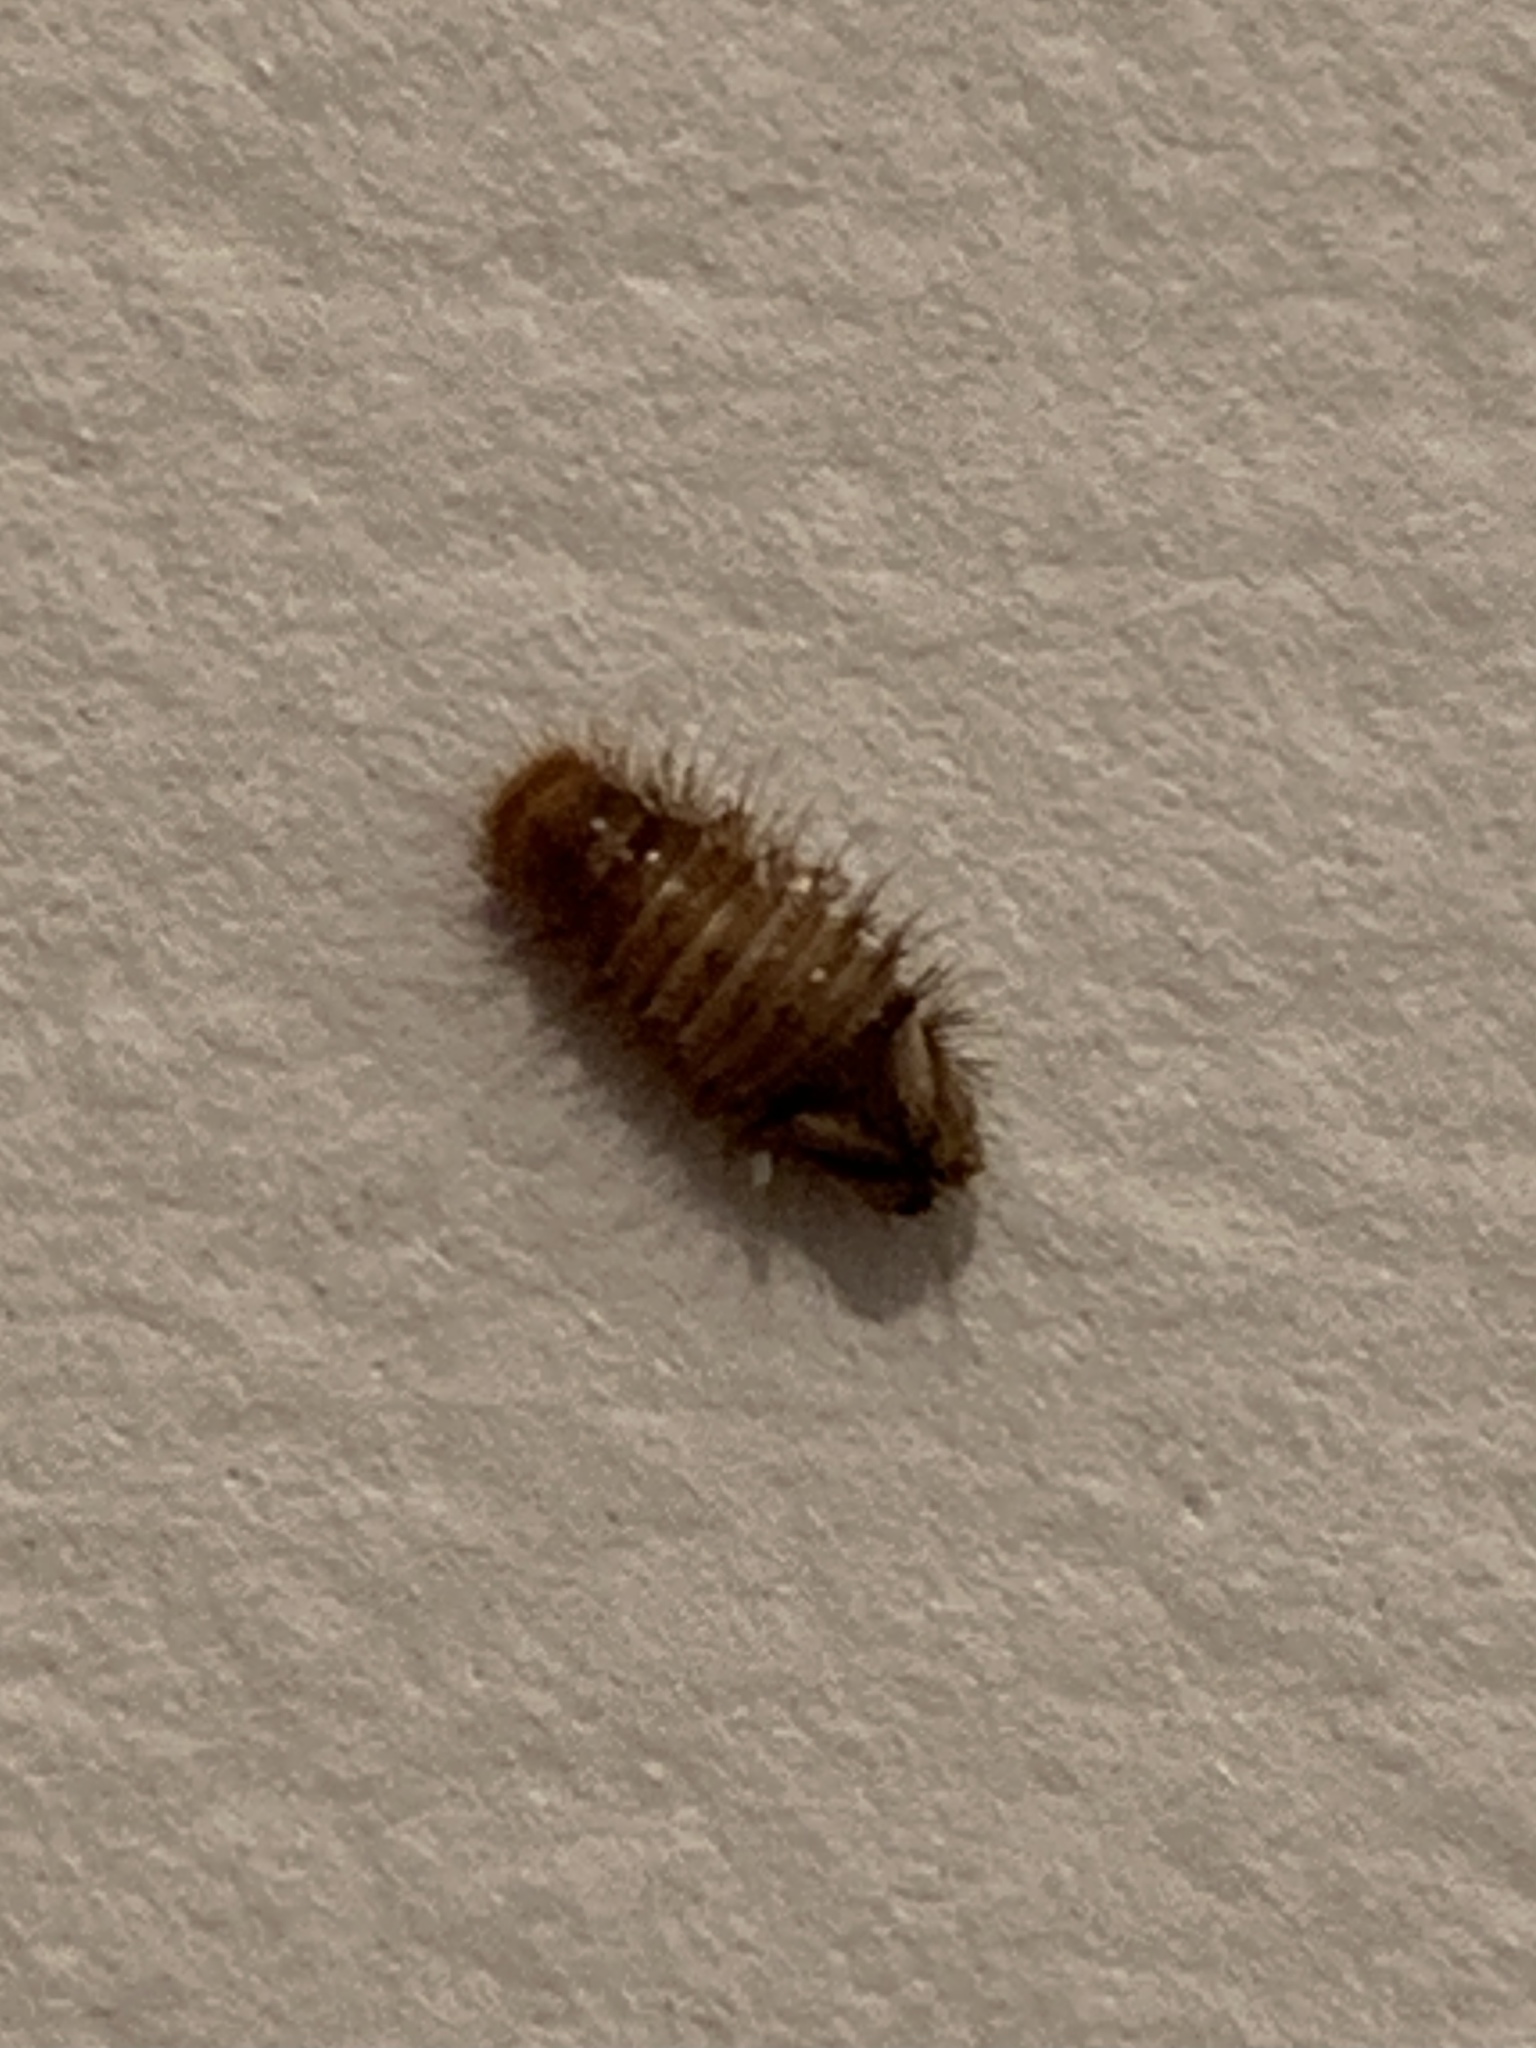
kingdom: Animalia
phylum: Arthropoda
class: Insecta
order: Coleoptera
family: Dermestidae
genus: Anthrenus
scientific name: Anthrenus verbasci
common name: Varied carpet beetle
